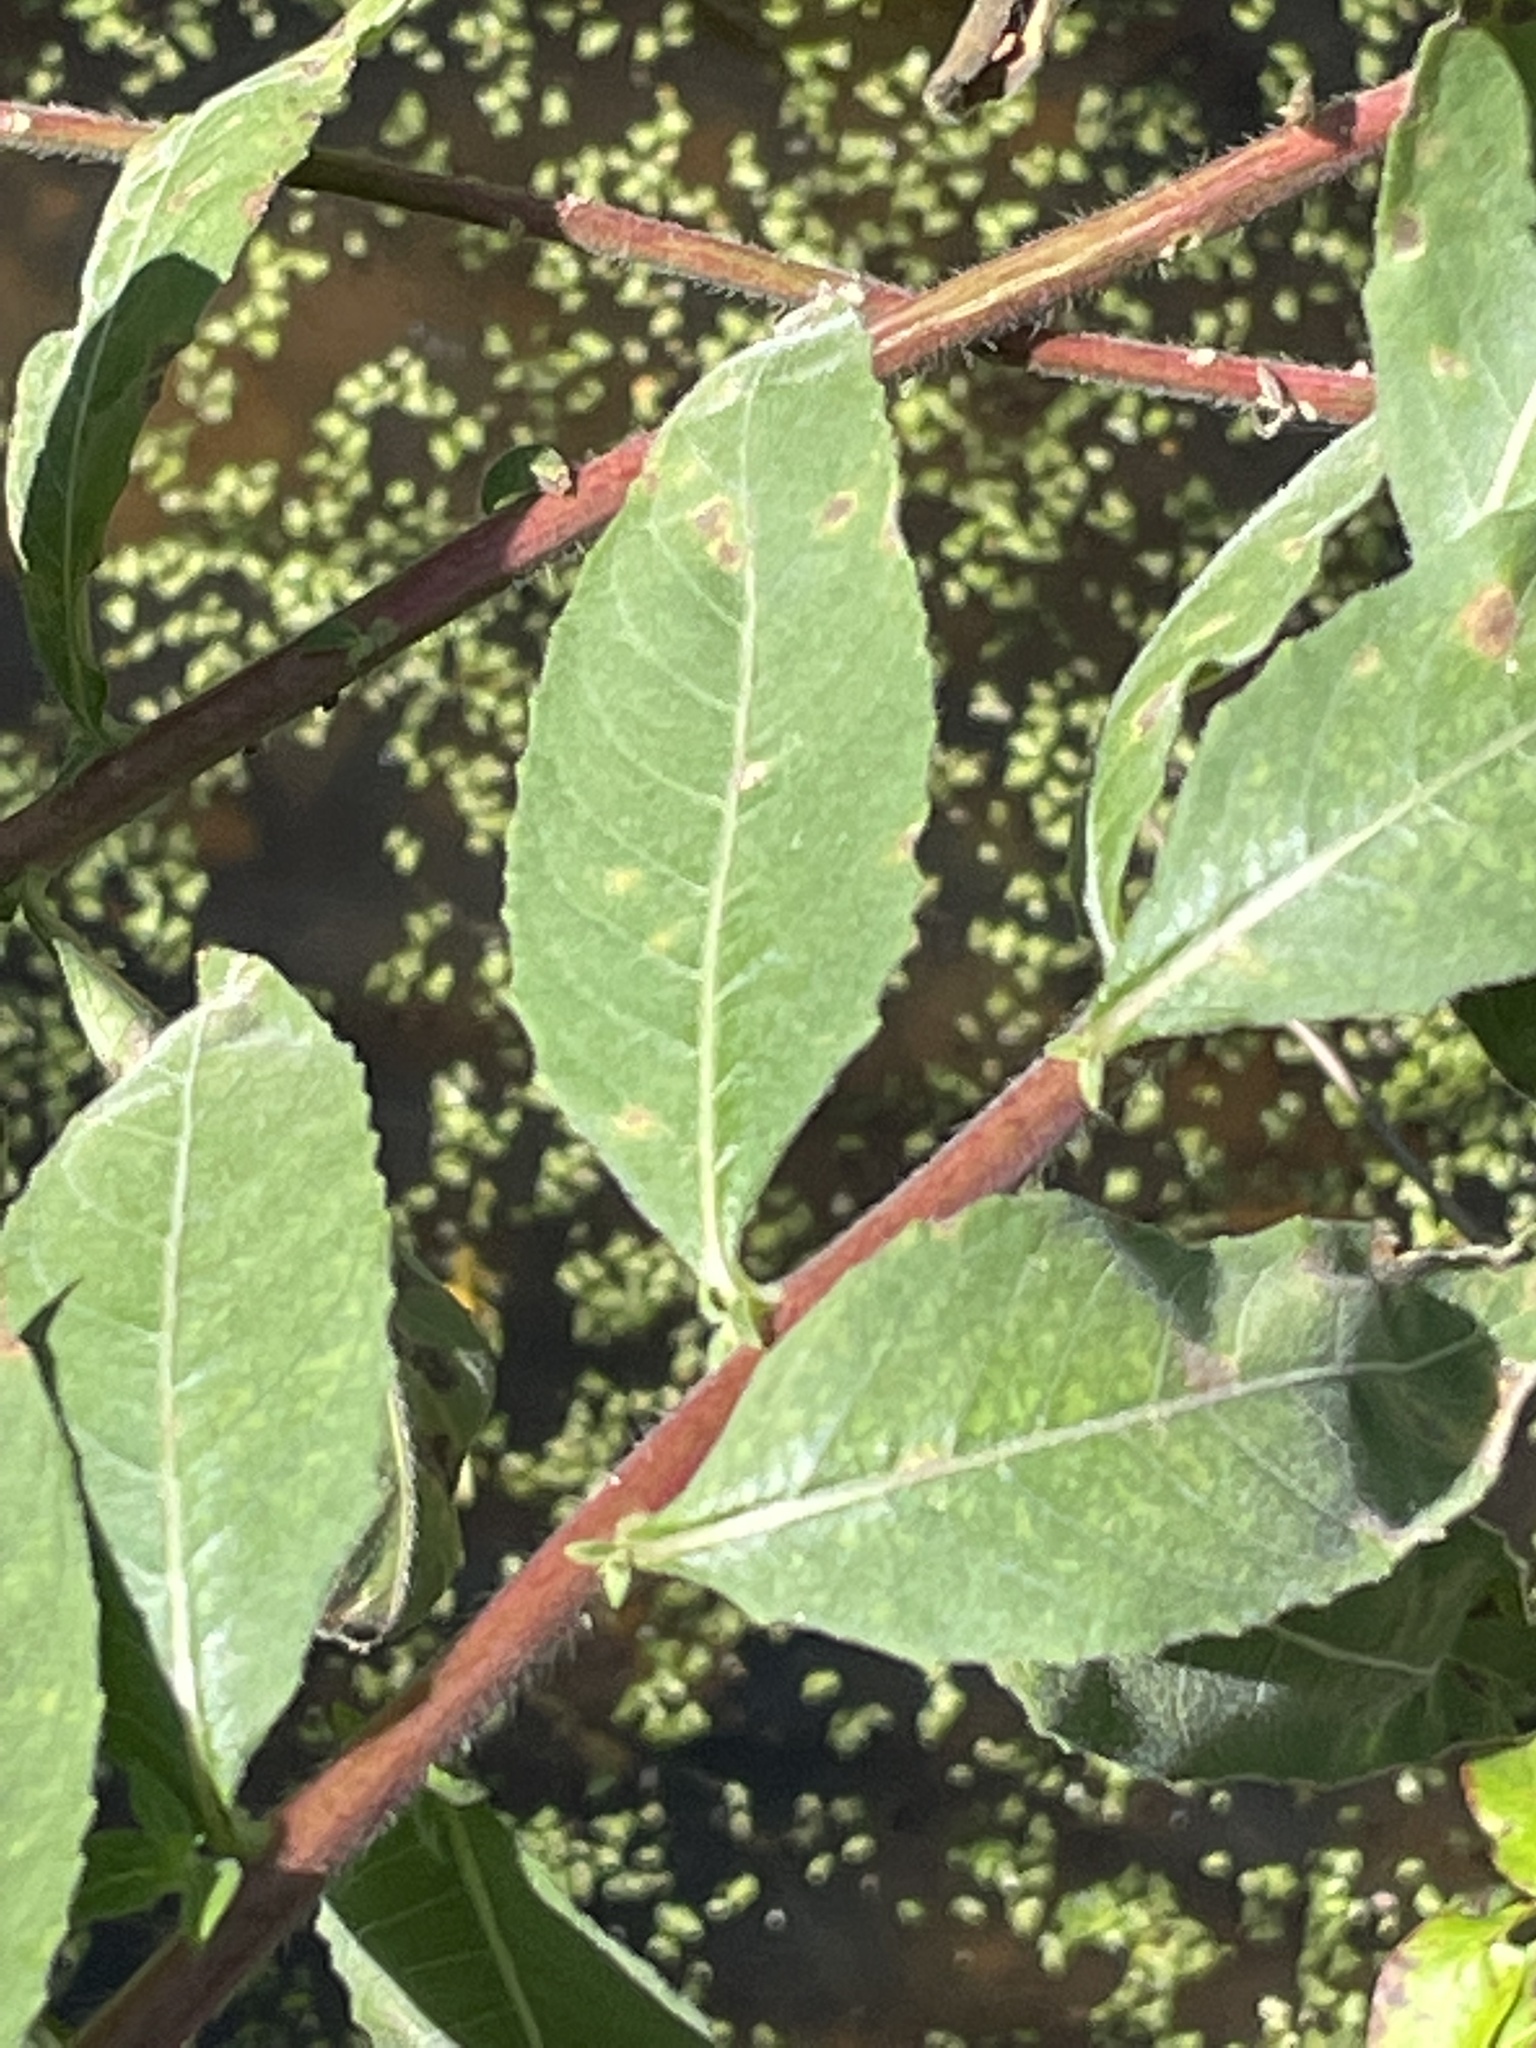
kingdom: Plantae
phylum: Tracheophyta
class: Magnoliopsida
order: Myrtales
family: Onagraceae
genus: Oenothera
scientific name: Oenothera biennis
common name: Common evening-primrose
